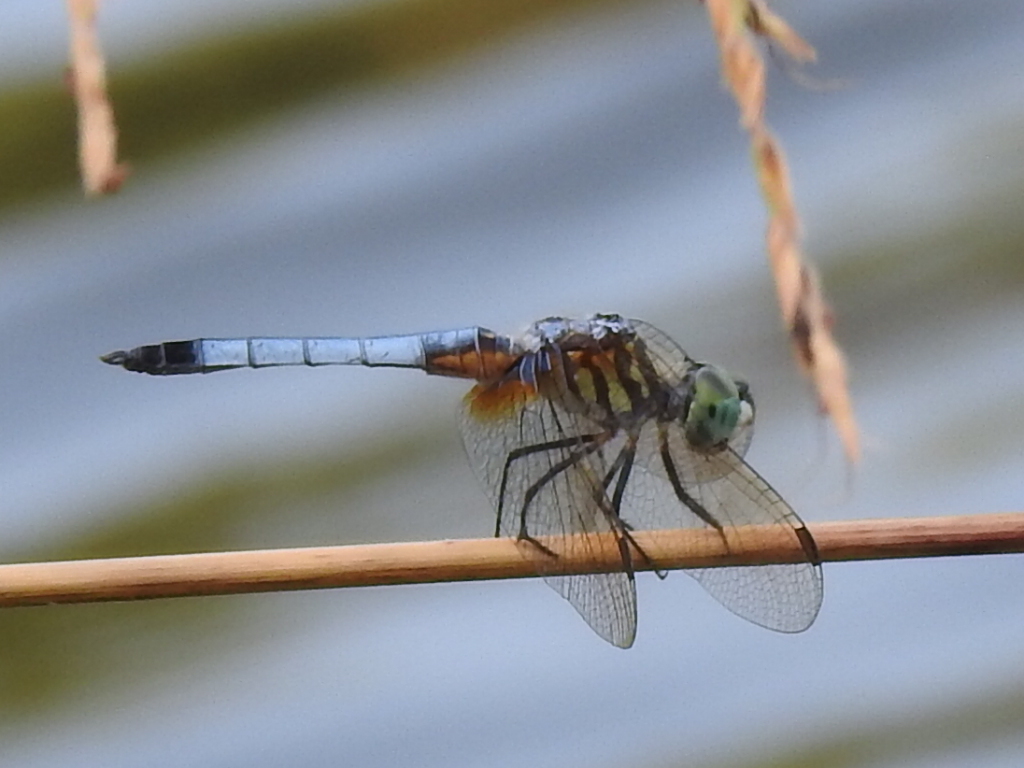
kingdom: Animalia
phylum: Arthropoda
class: Insecta
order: Odonata
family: Libellulidae
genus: Pachydiplax
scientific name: Pachydiplax longipennis
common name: Blue dasher
